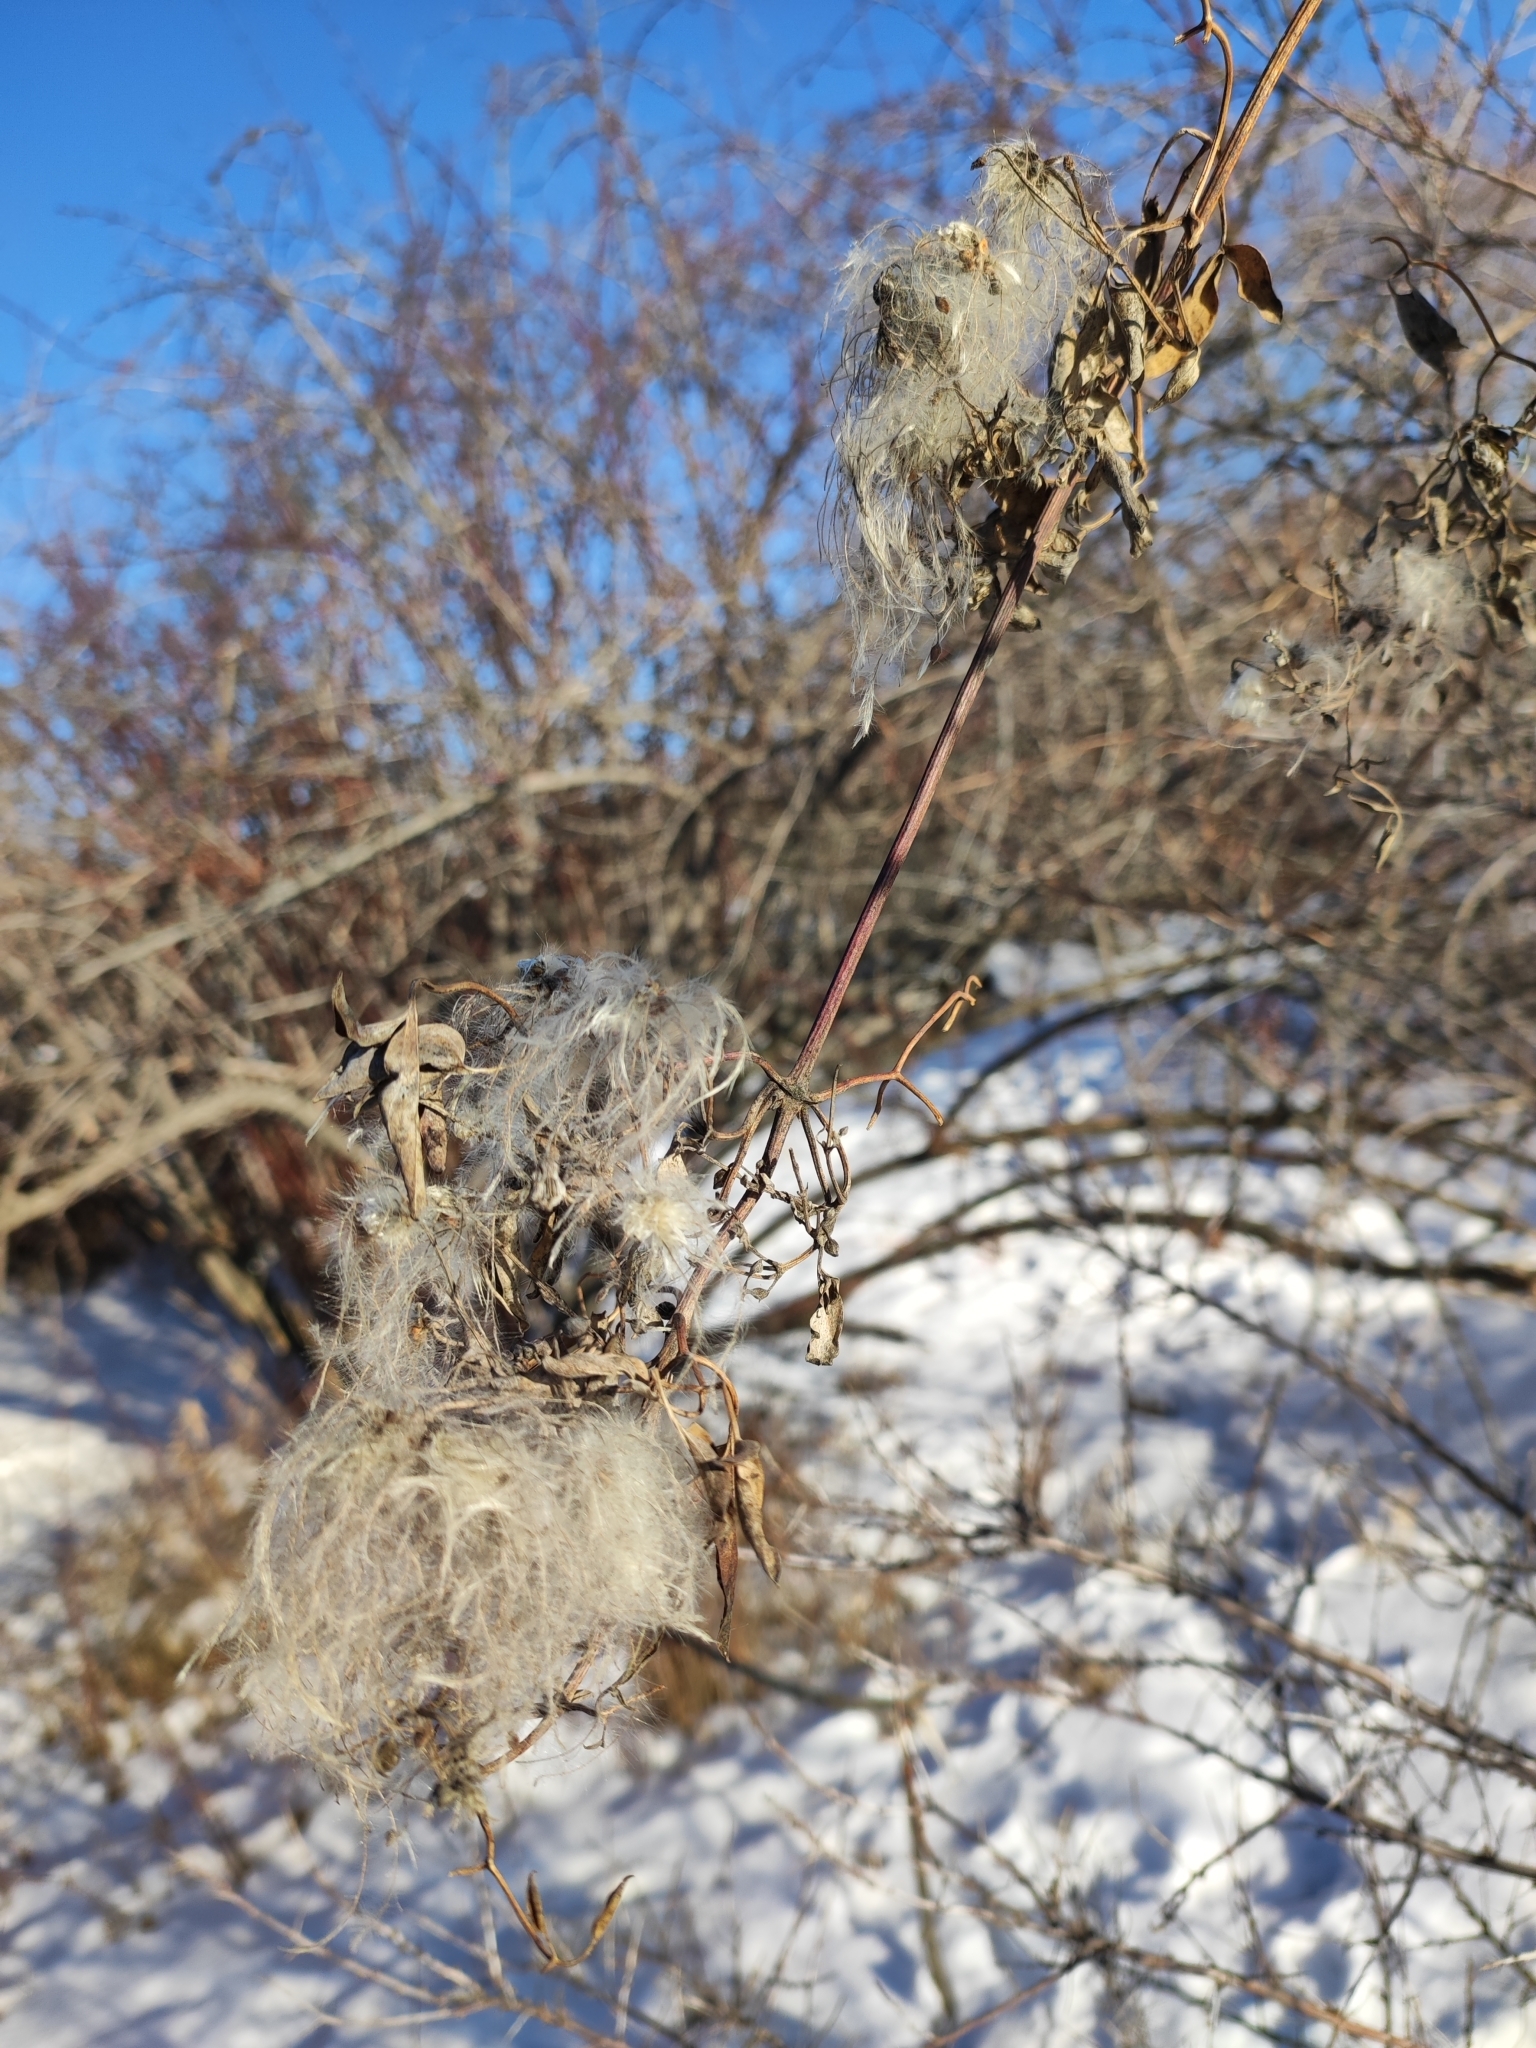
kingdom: Plantae
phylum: Tracheophyta
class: Magnoliopsida
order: Ranunculales
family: Ranunculaceae
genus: Clematis
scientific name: Clematis orientalis
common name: Oriental virgin's-bower
